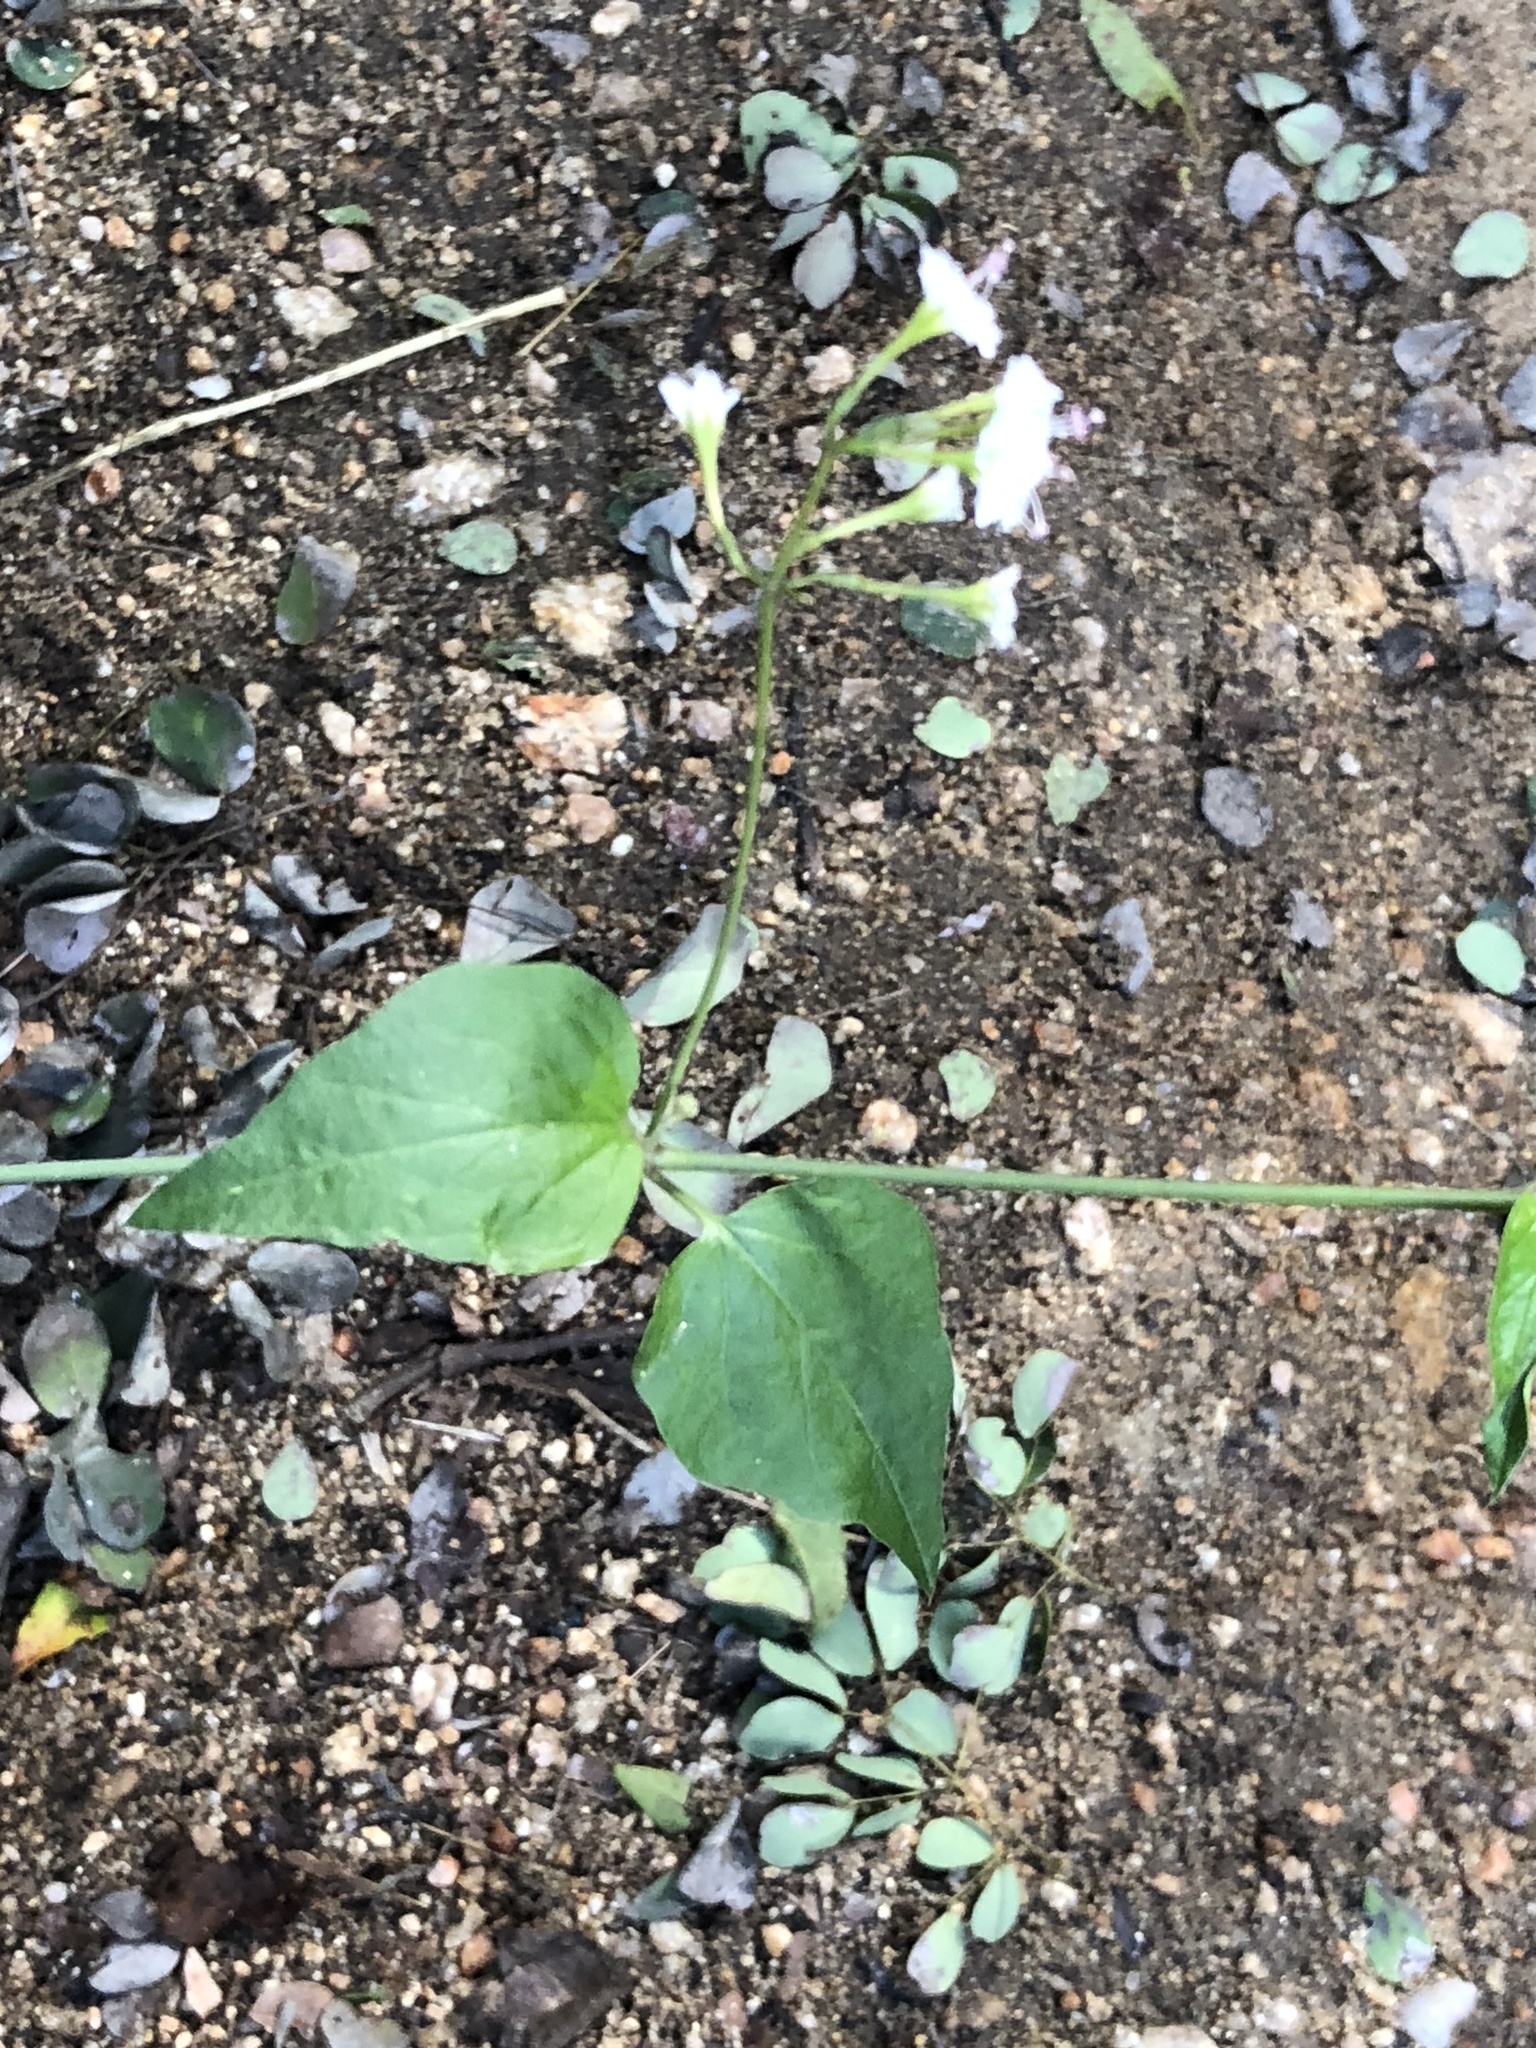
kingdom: Plantae
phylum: Tracheophyta
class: Magnoliopsida
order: Caryophyllales
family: Nyctaginaceae
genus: Commicarpus
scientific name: Commicarpus plumbagineus
